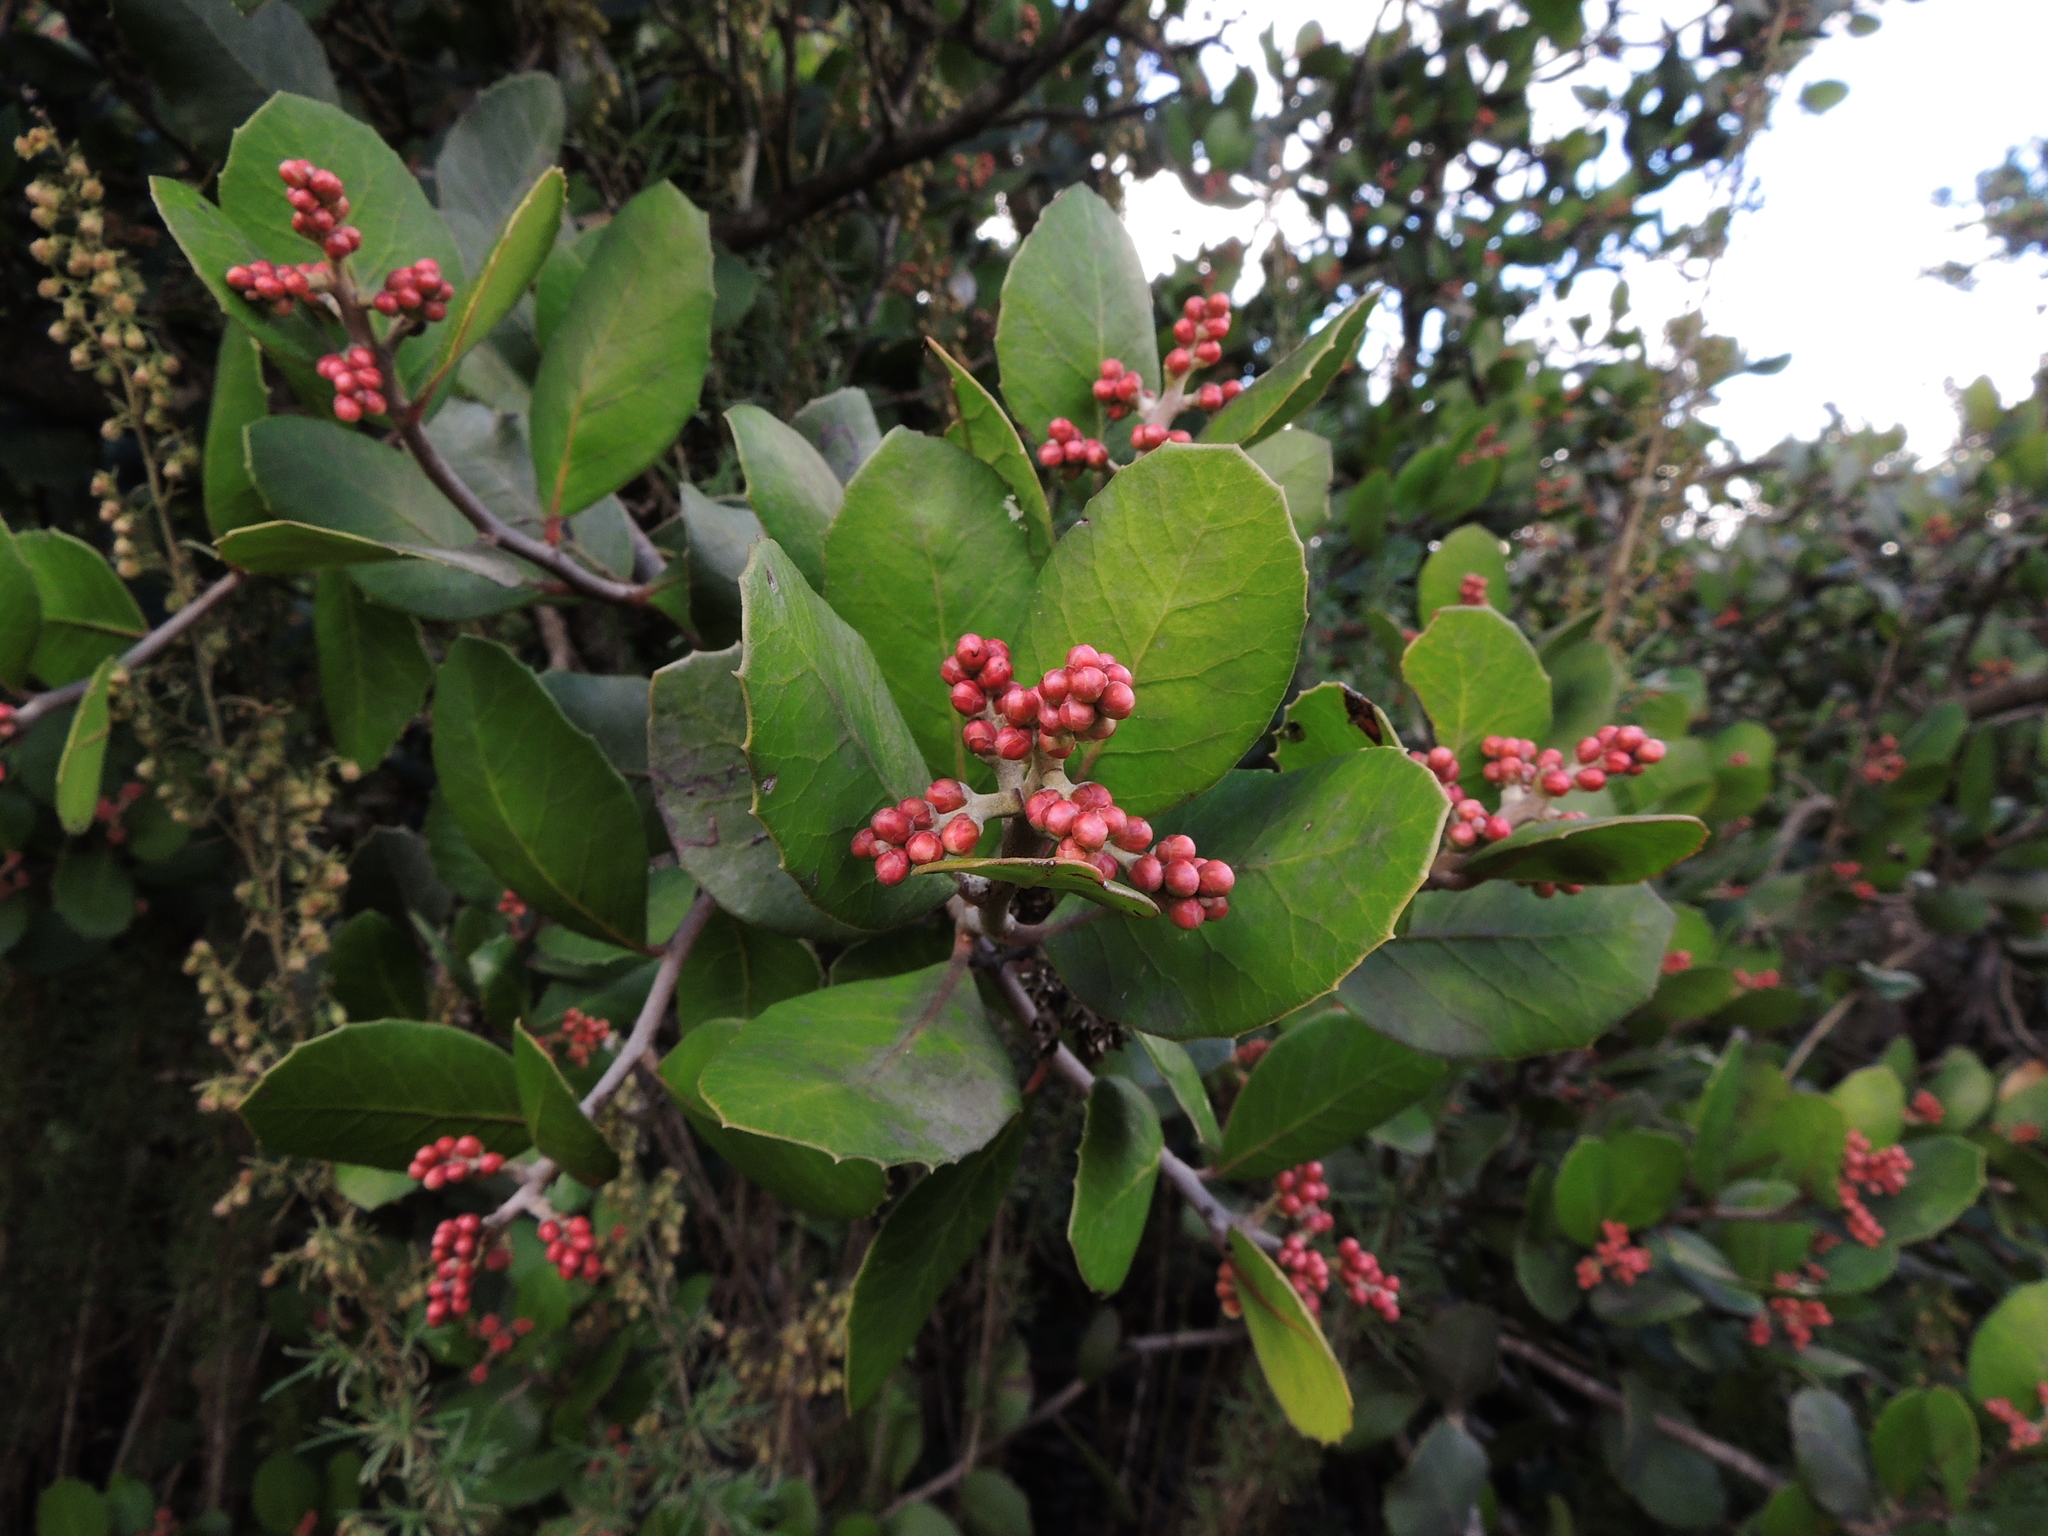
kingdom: Plantae
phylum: Tracheophyta
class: Magnoliopsida
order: Sapindales
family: Anacardiaceae
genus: Rhus
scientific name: Rhus integrifolia
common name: Lemonade sumac
